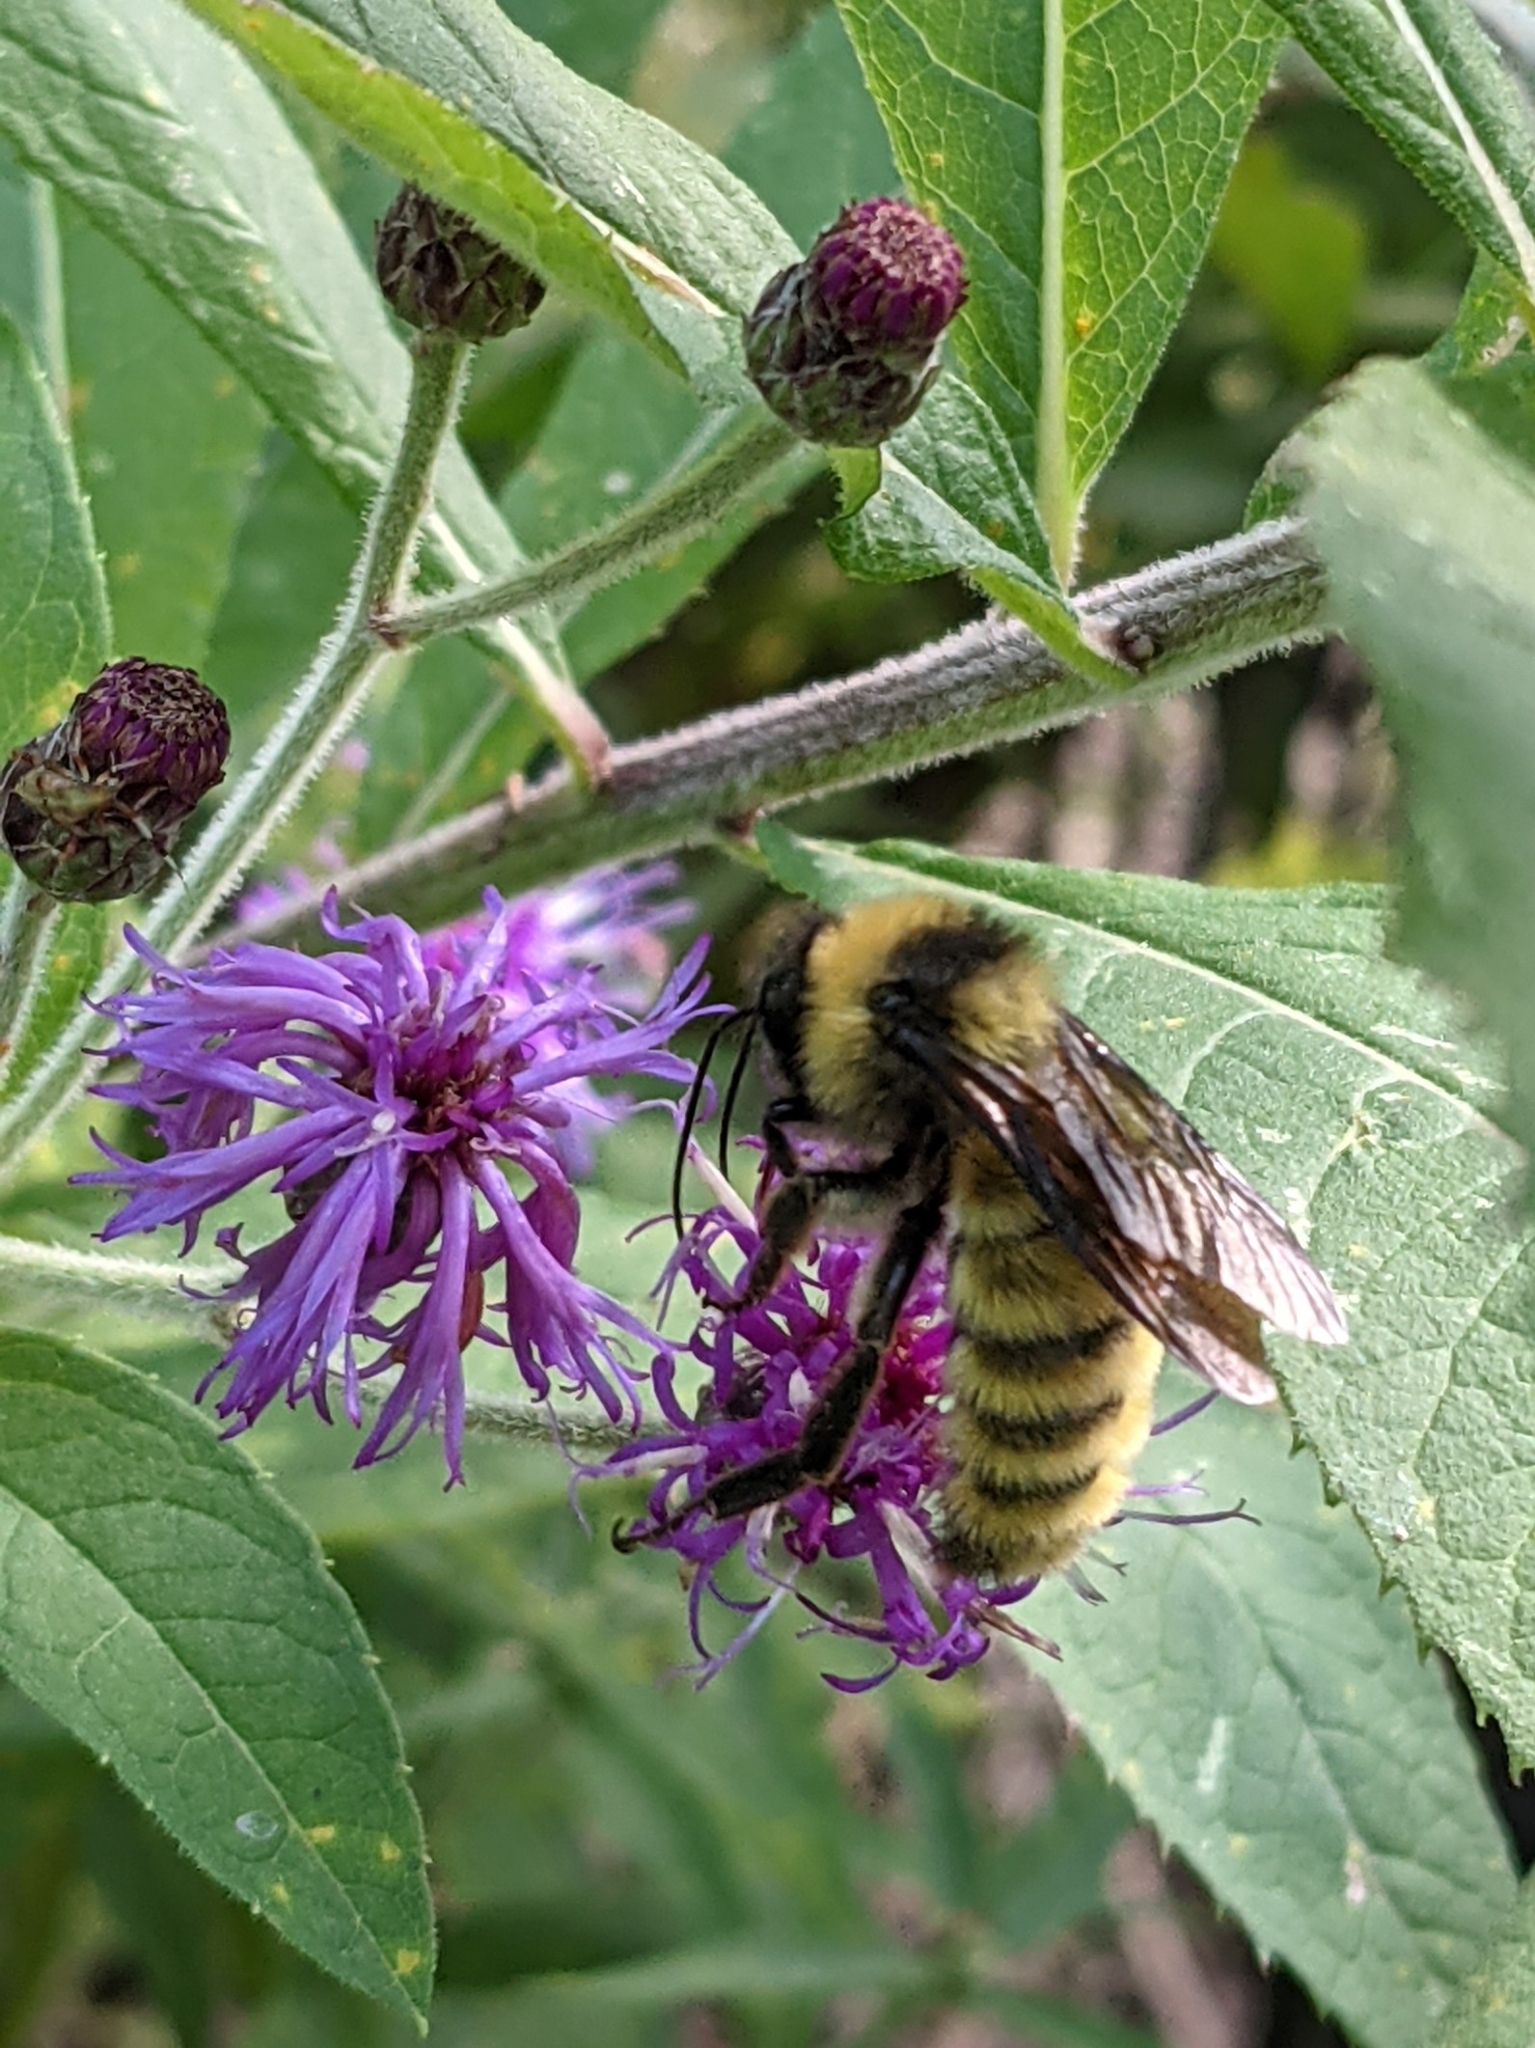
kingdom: Animalia
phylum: Arthropoda
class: Insecta
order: Hymenoptera
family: Apidae
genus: Bombus
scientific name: Bombus pensylvanicus
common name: Bumble bee
